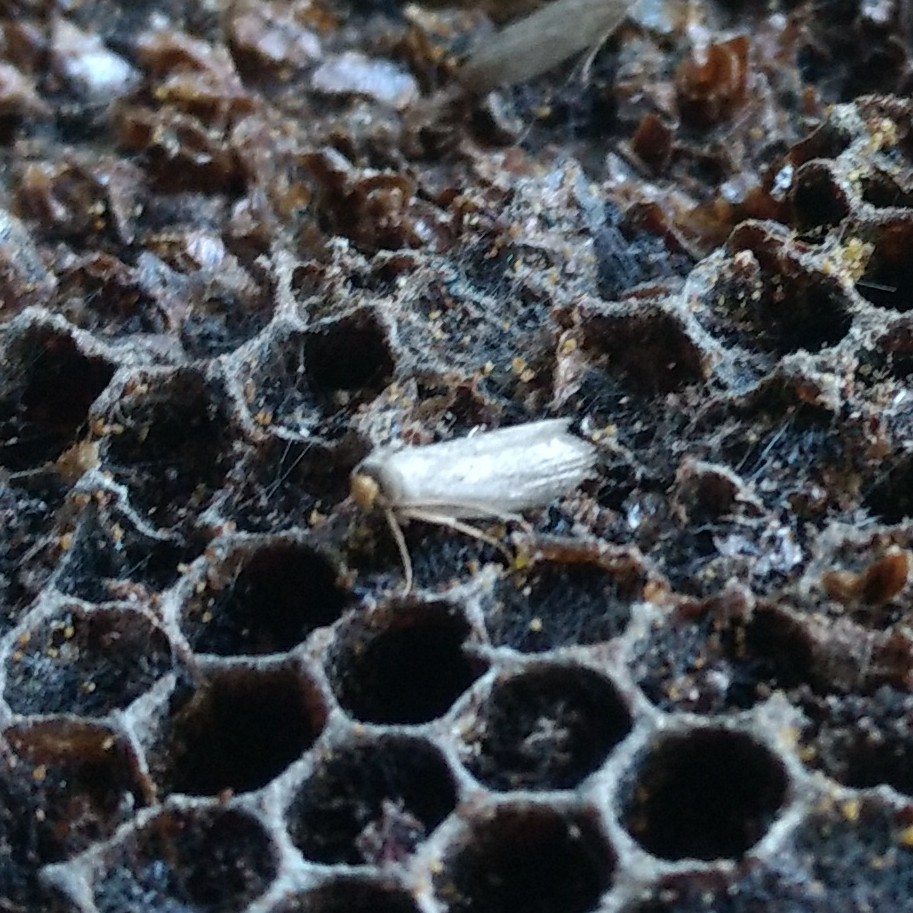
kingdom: Animalia
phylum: Arthropoda
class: Insecta
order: Lepidoptera
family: Pyralidae
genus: Achroia
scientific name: Achroia grisella
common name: Lesser wax moth
